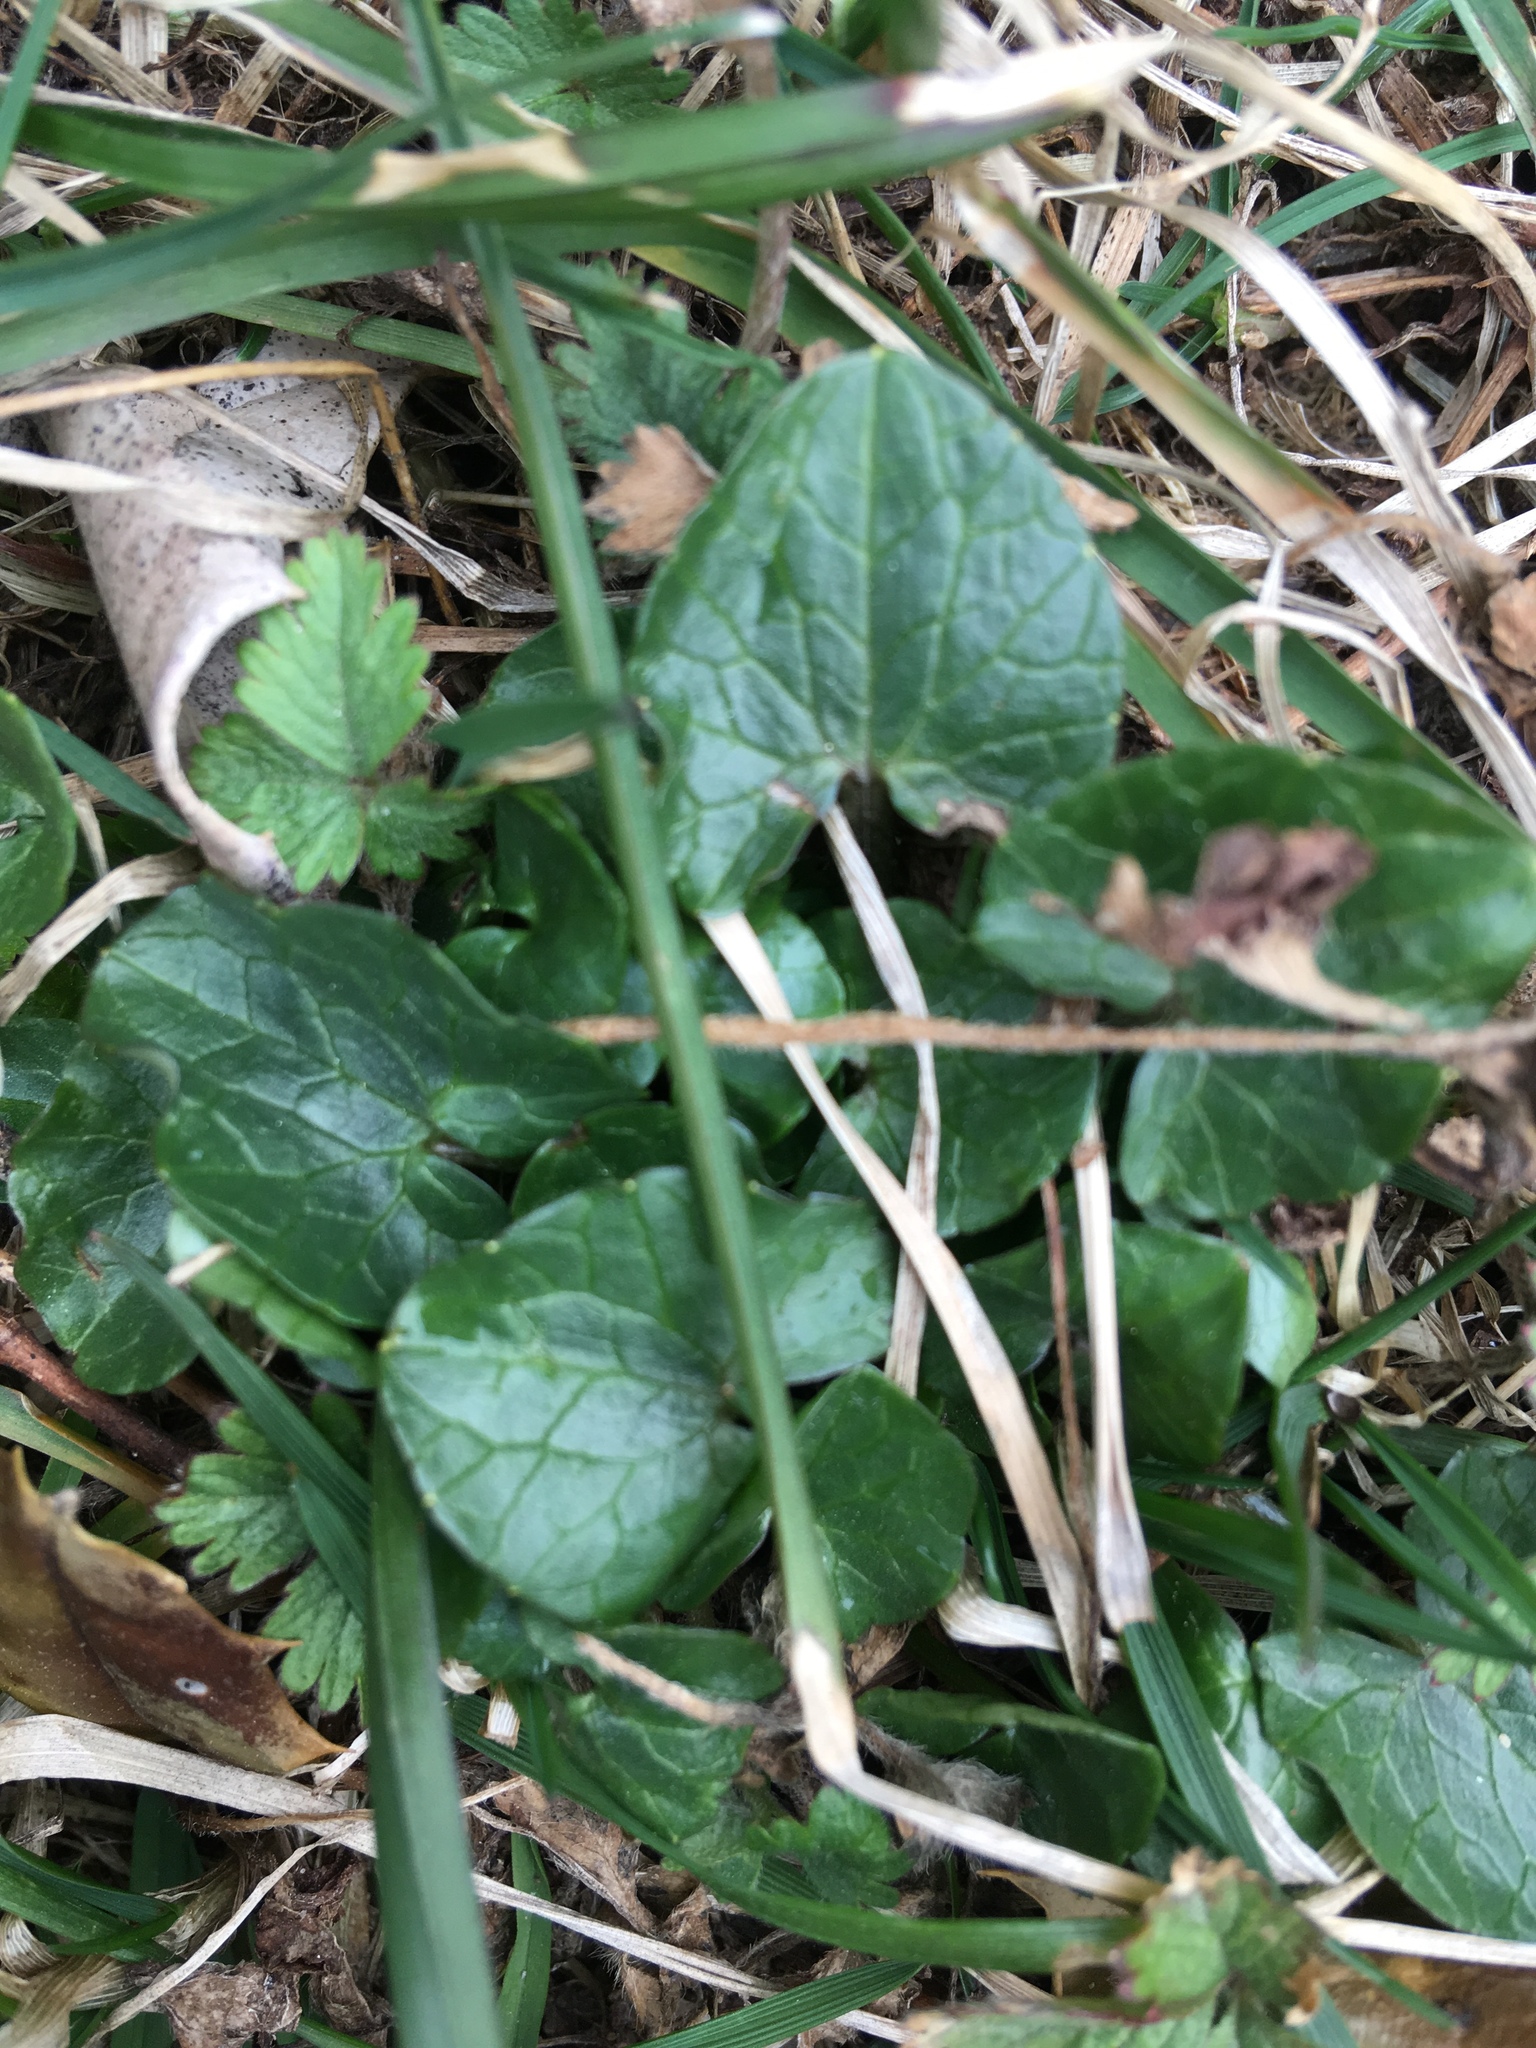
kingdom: Plantae
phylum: Tracheophyta
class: Magnoliopsida
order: Ranunculales
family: Ranunculaceae
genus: Ficaria
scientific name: Ficaria verna
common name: Lesser celandine
